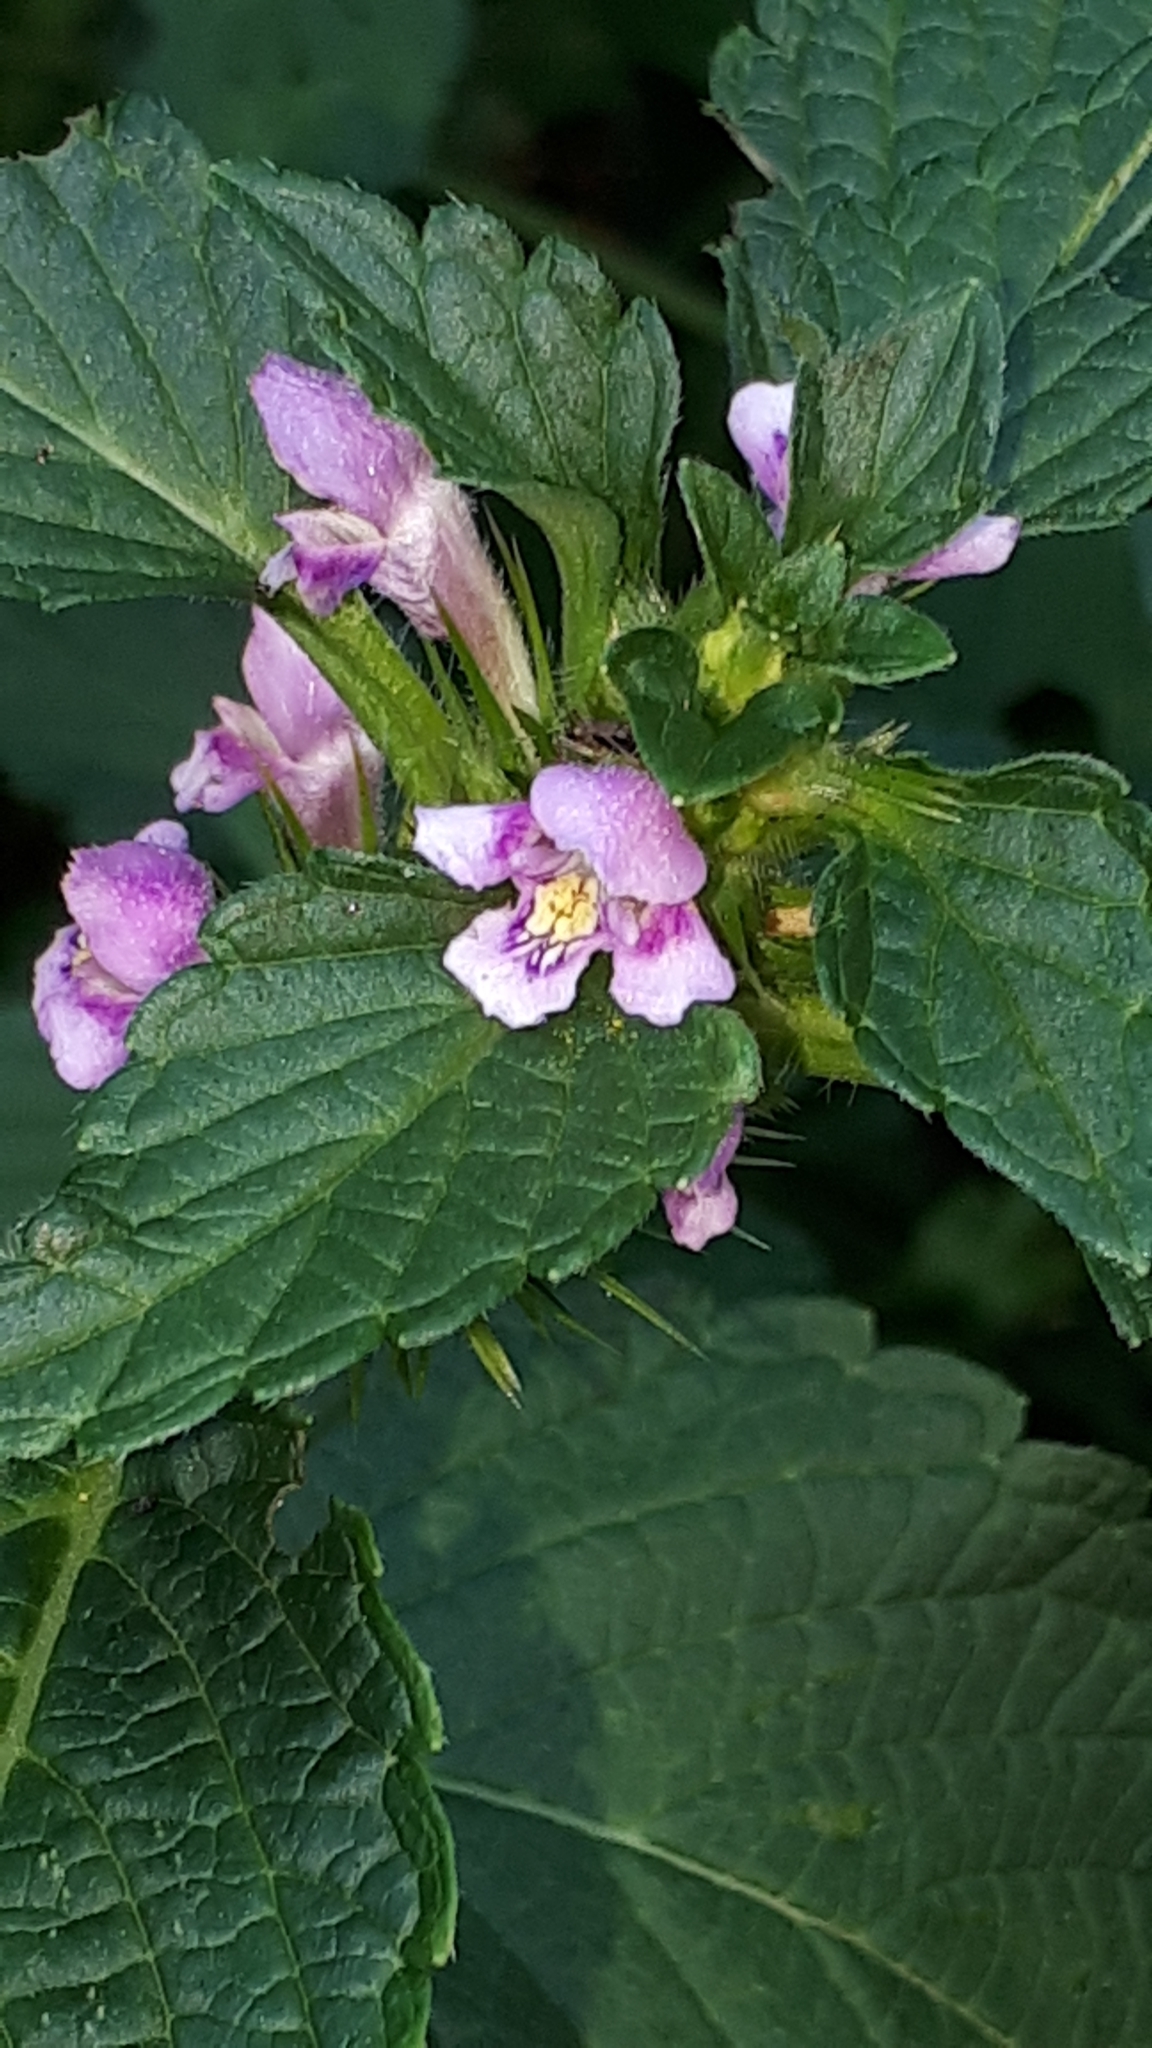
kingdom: Plantae
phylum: Tracheophyta
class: Magnoliopsida
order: Lamiales
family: Lamiaceae
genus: Galeopsis
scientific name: Galeopsis tetrahit
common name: Common hemp-nettle
